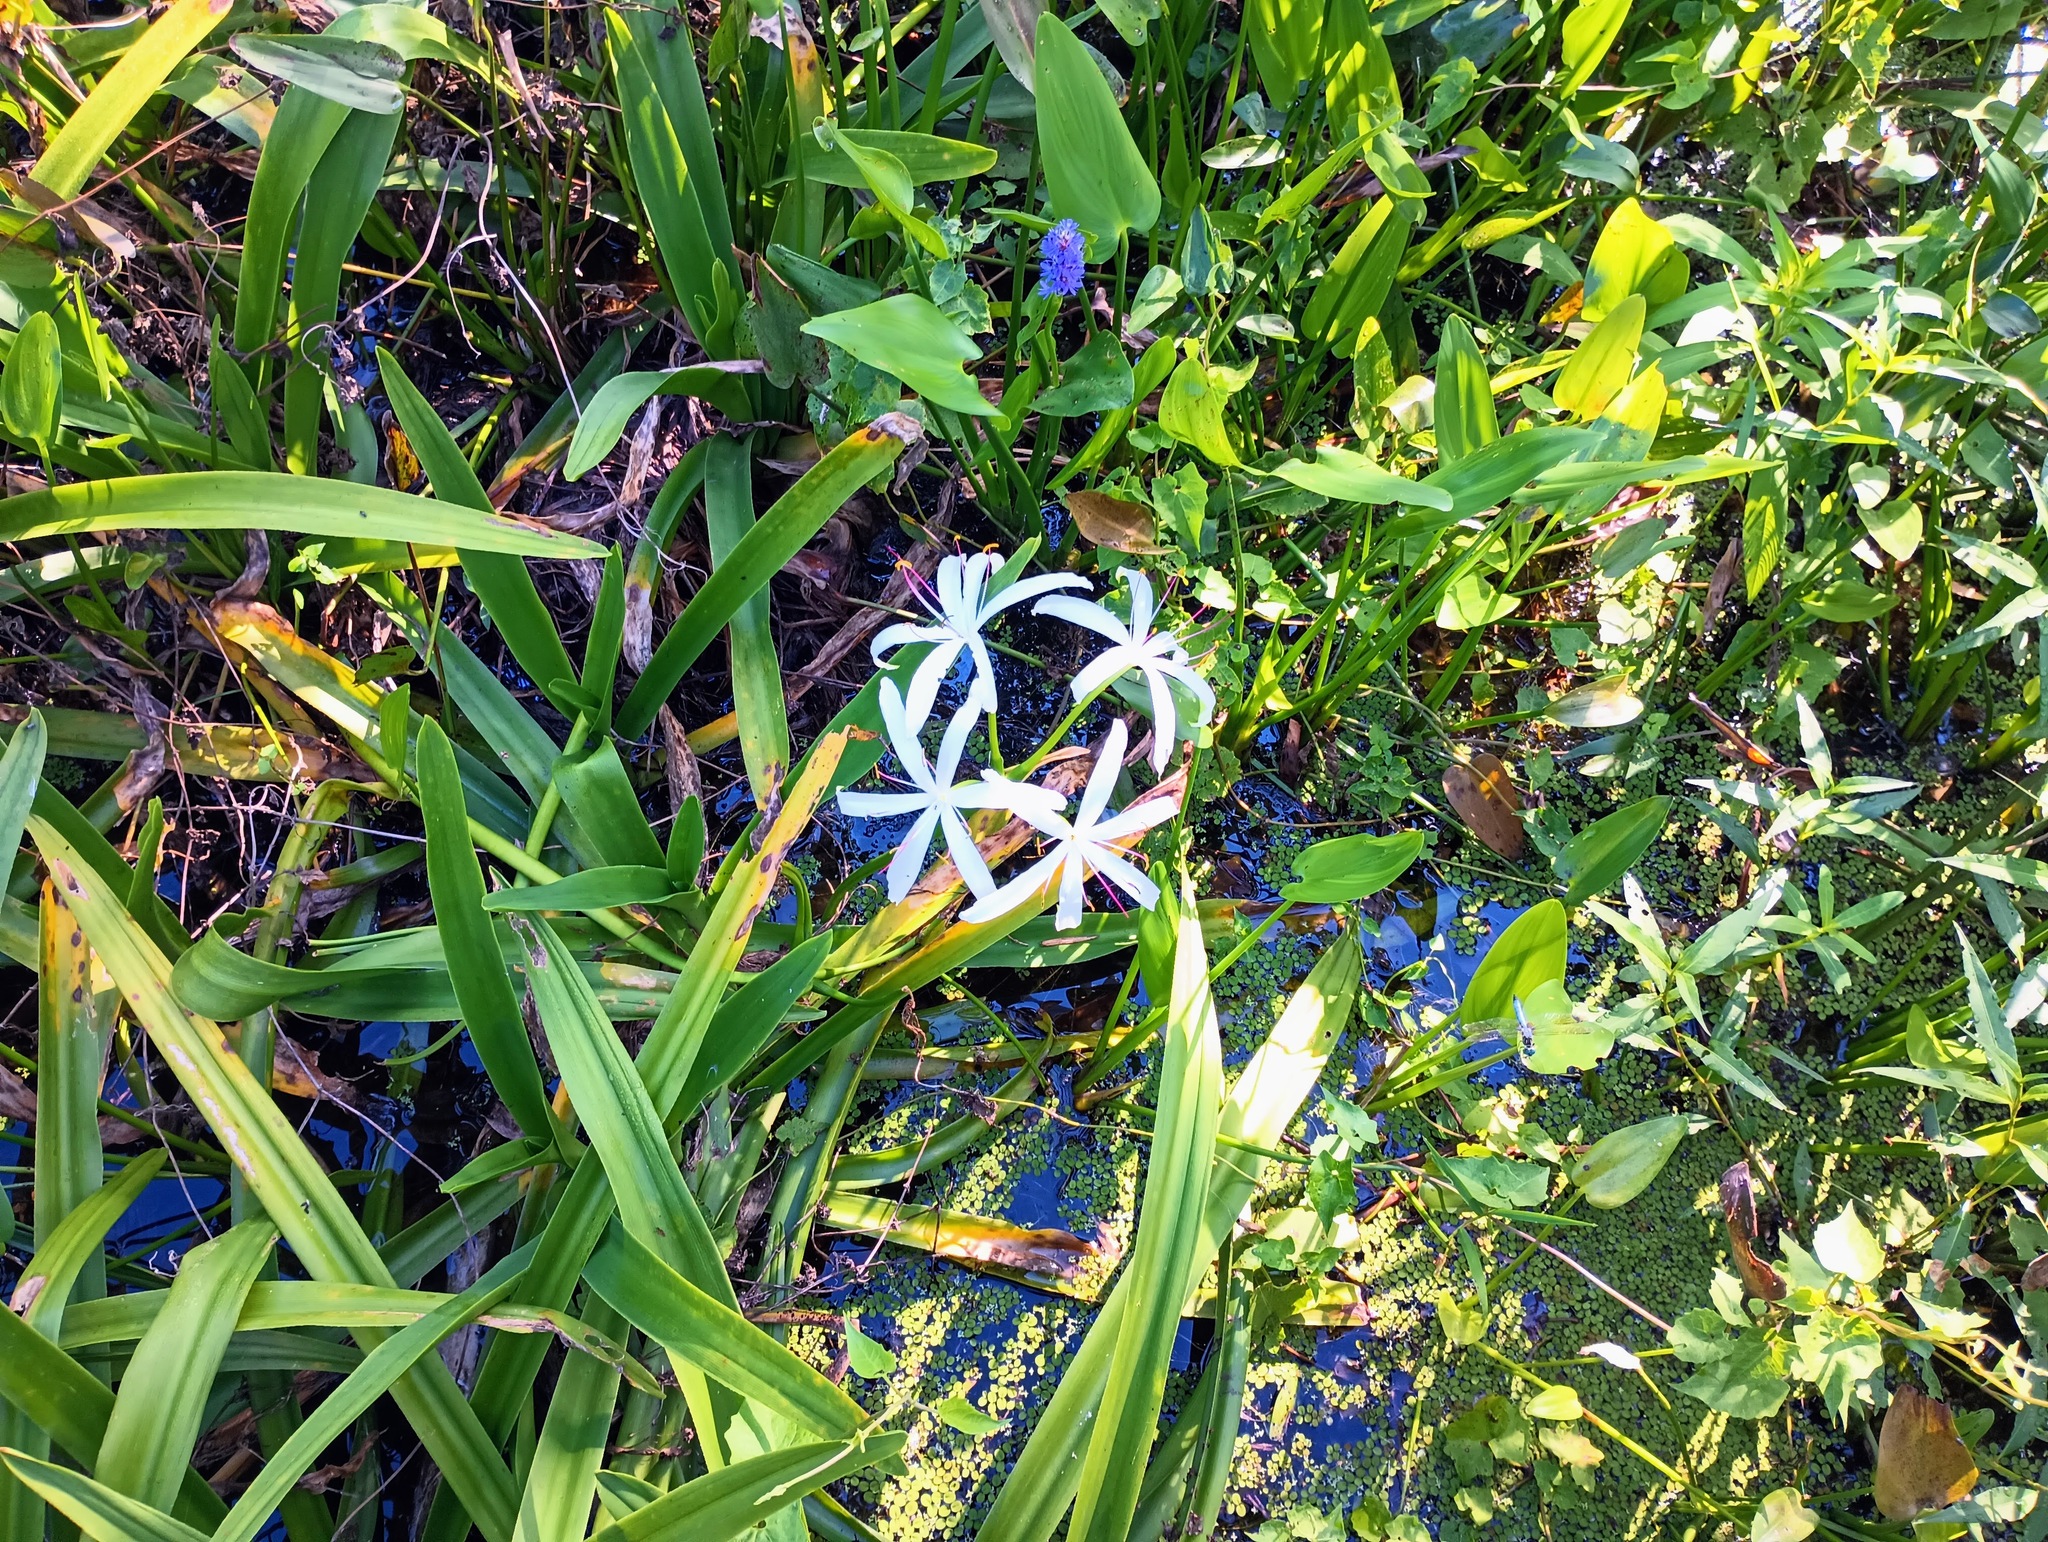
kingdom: Plantae
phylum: Tracheophyta
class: Liliopsida
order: Asparagales
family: Amaryllidaceae
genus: Crinum
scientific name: Crinum americanum
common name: Florida swamp-lily
